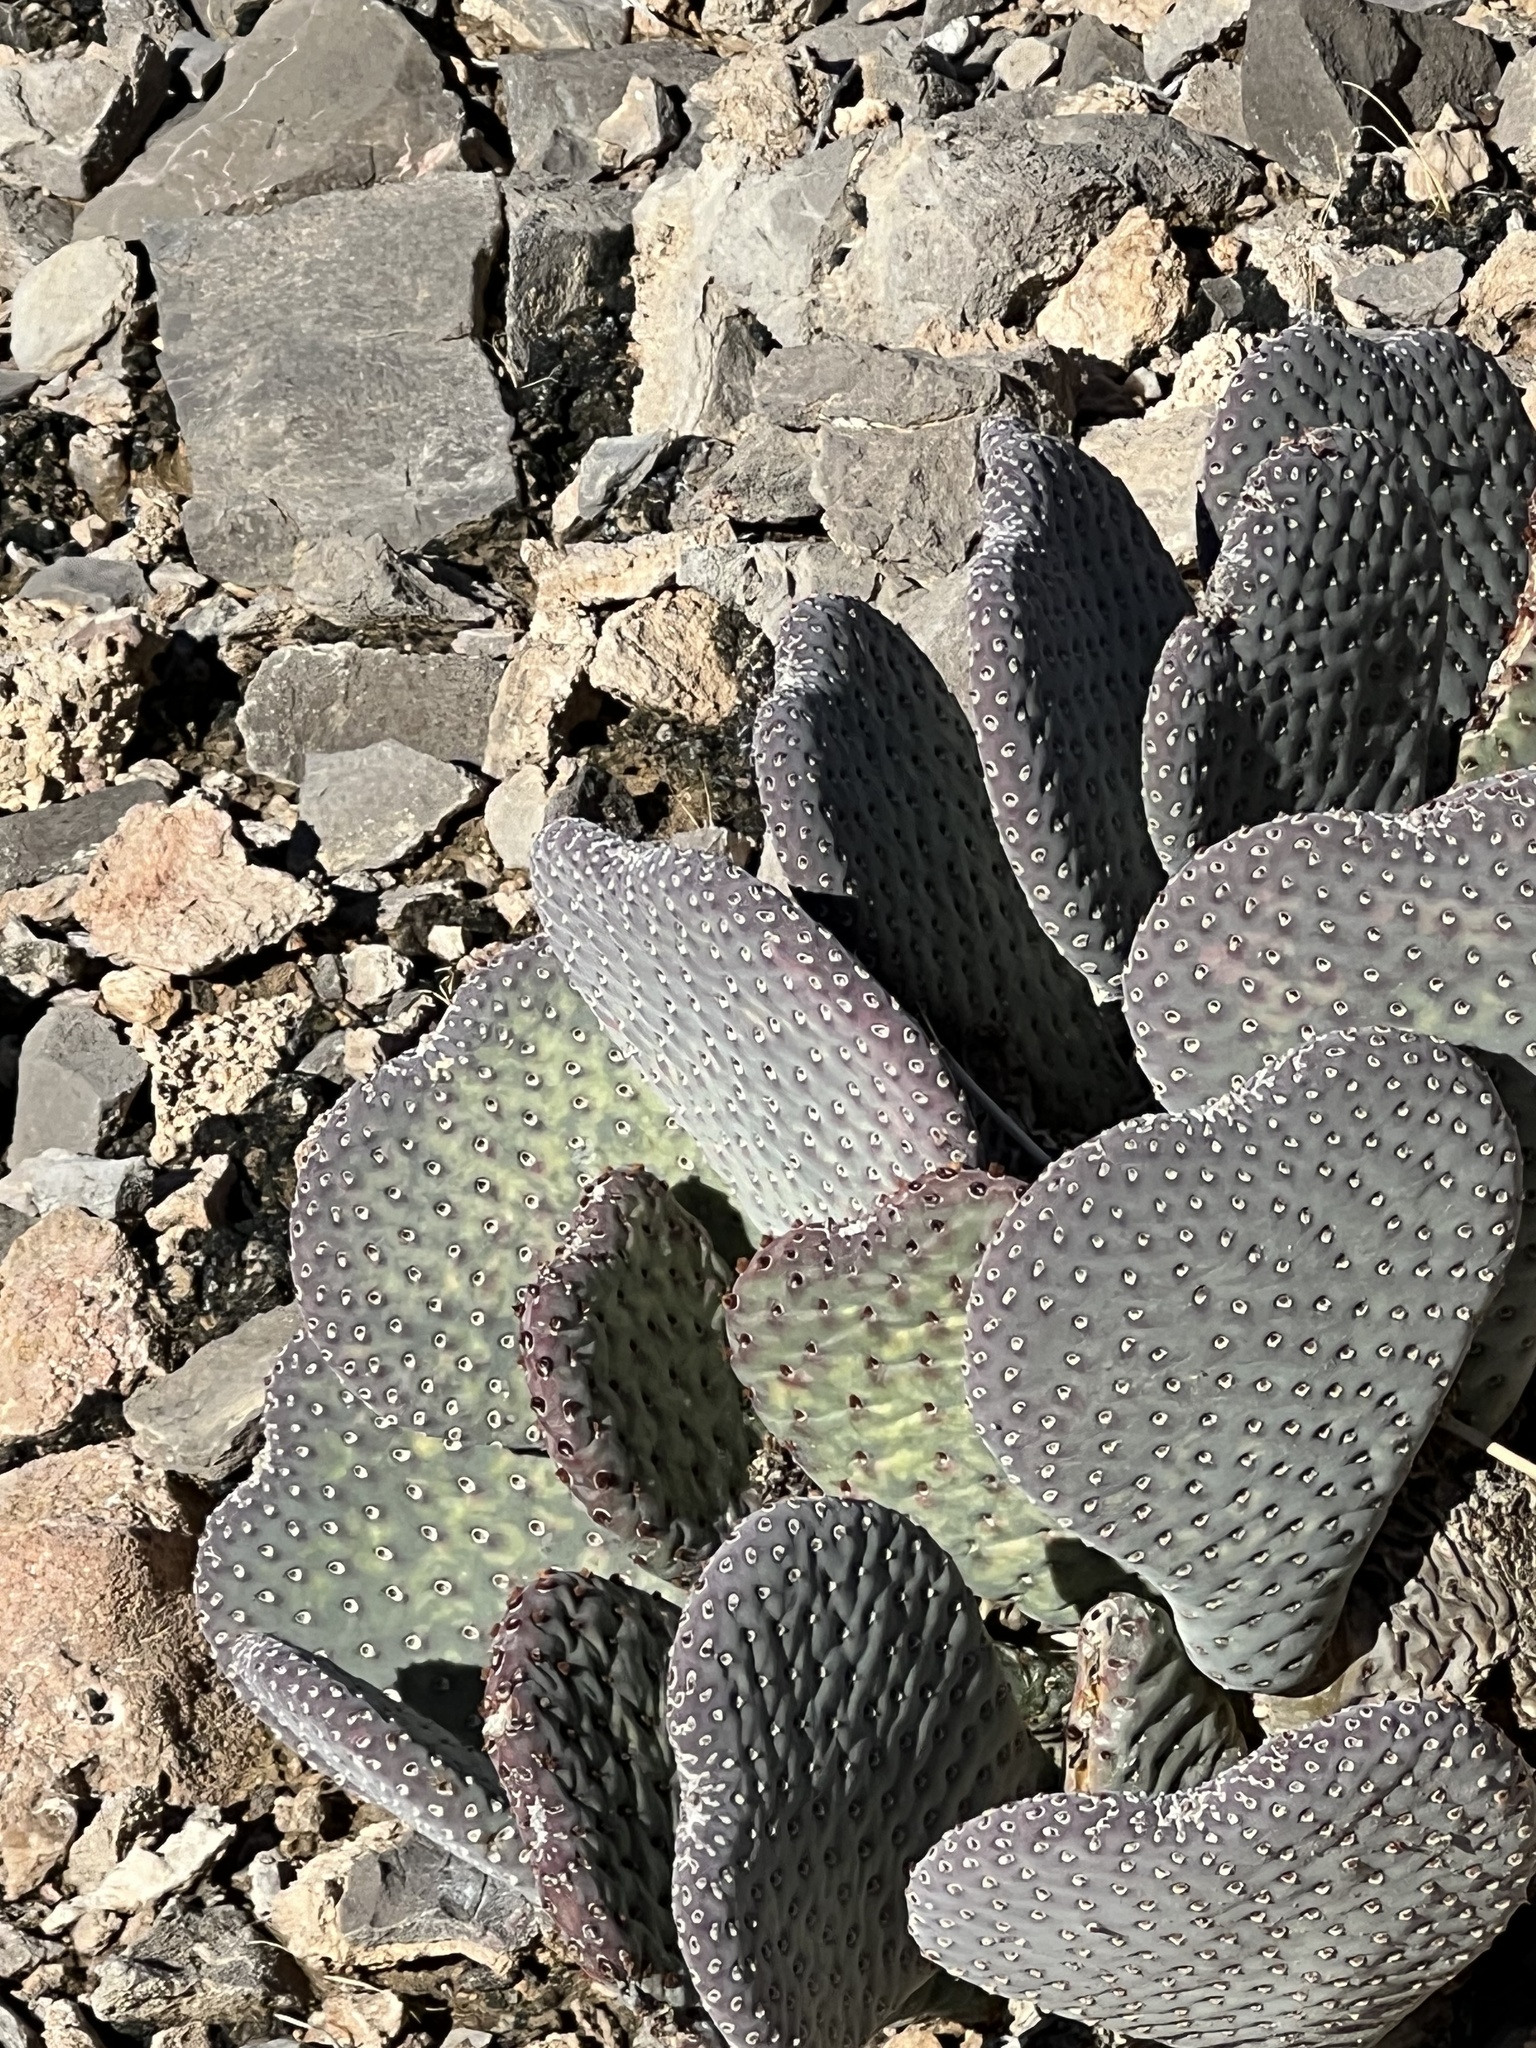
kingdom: Plantae
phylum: Tracheophyta
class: Magnoliopsida
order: Caryophyllales
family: Cactaceae
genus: Opuntia
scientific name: Opuntia basilaris
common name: Beavertail prickly-pear
